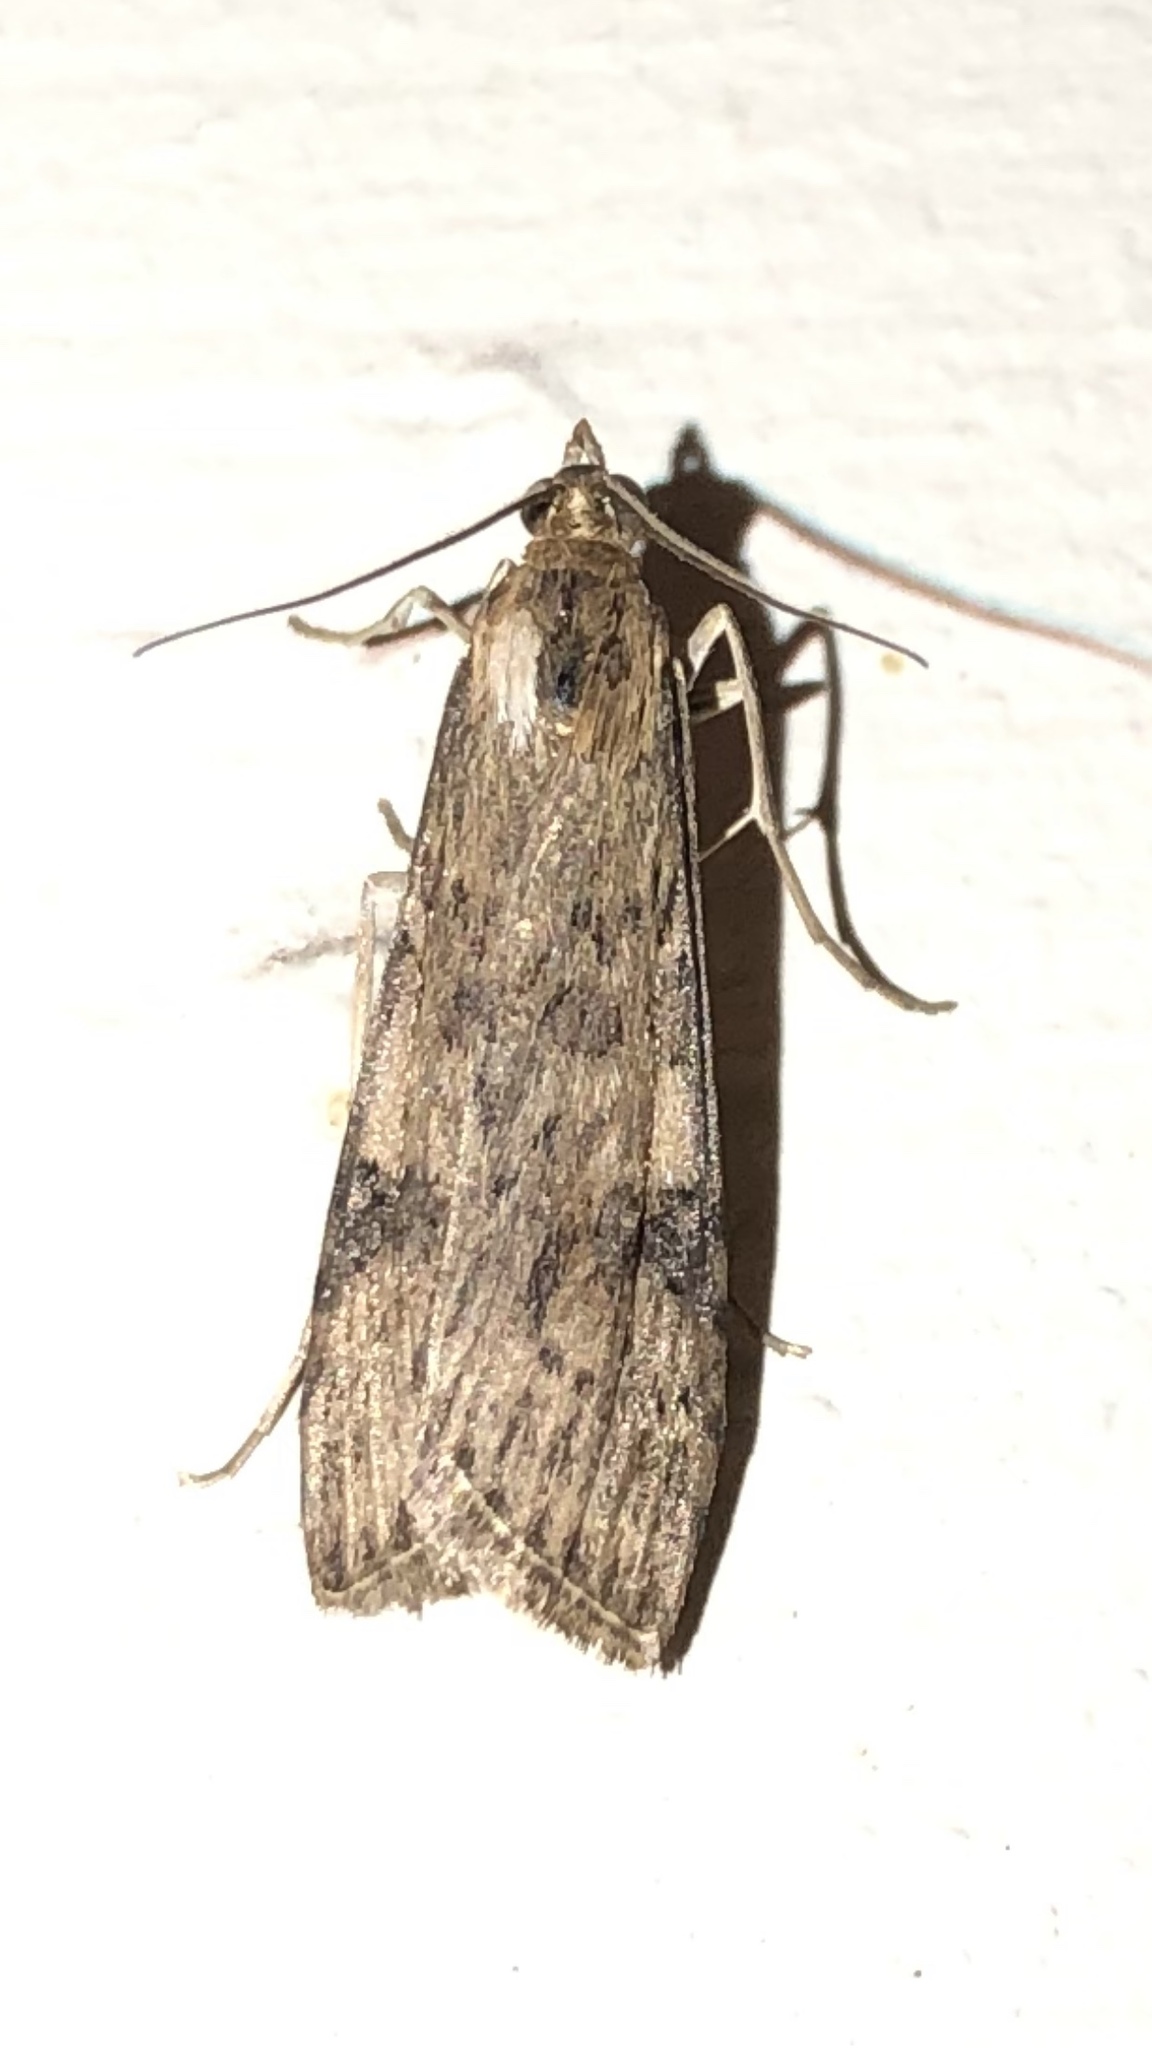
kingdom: Animalia
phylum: Arthropoda
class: Insecta
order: Lepidoptera
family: Crambidae
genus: Nomophila
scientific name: Nomophila nearctica
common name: American rush veneer
